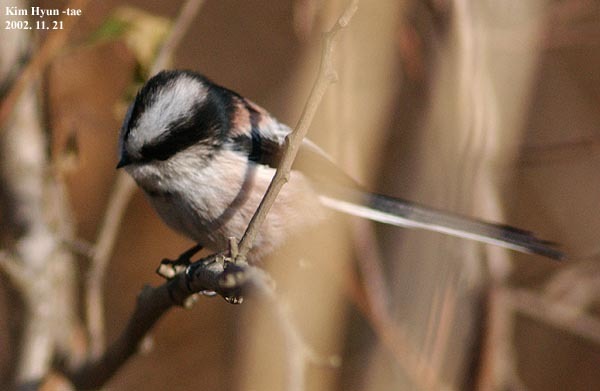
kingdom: Animalia
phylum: Chordata
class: Aves
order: Passeriformes
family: Aegithalidae
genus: Aegithalos
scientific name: Aegithalos caudatus
